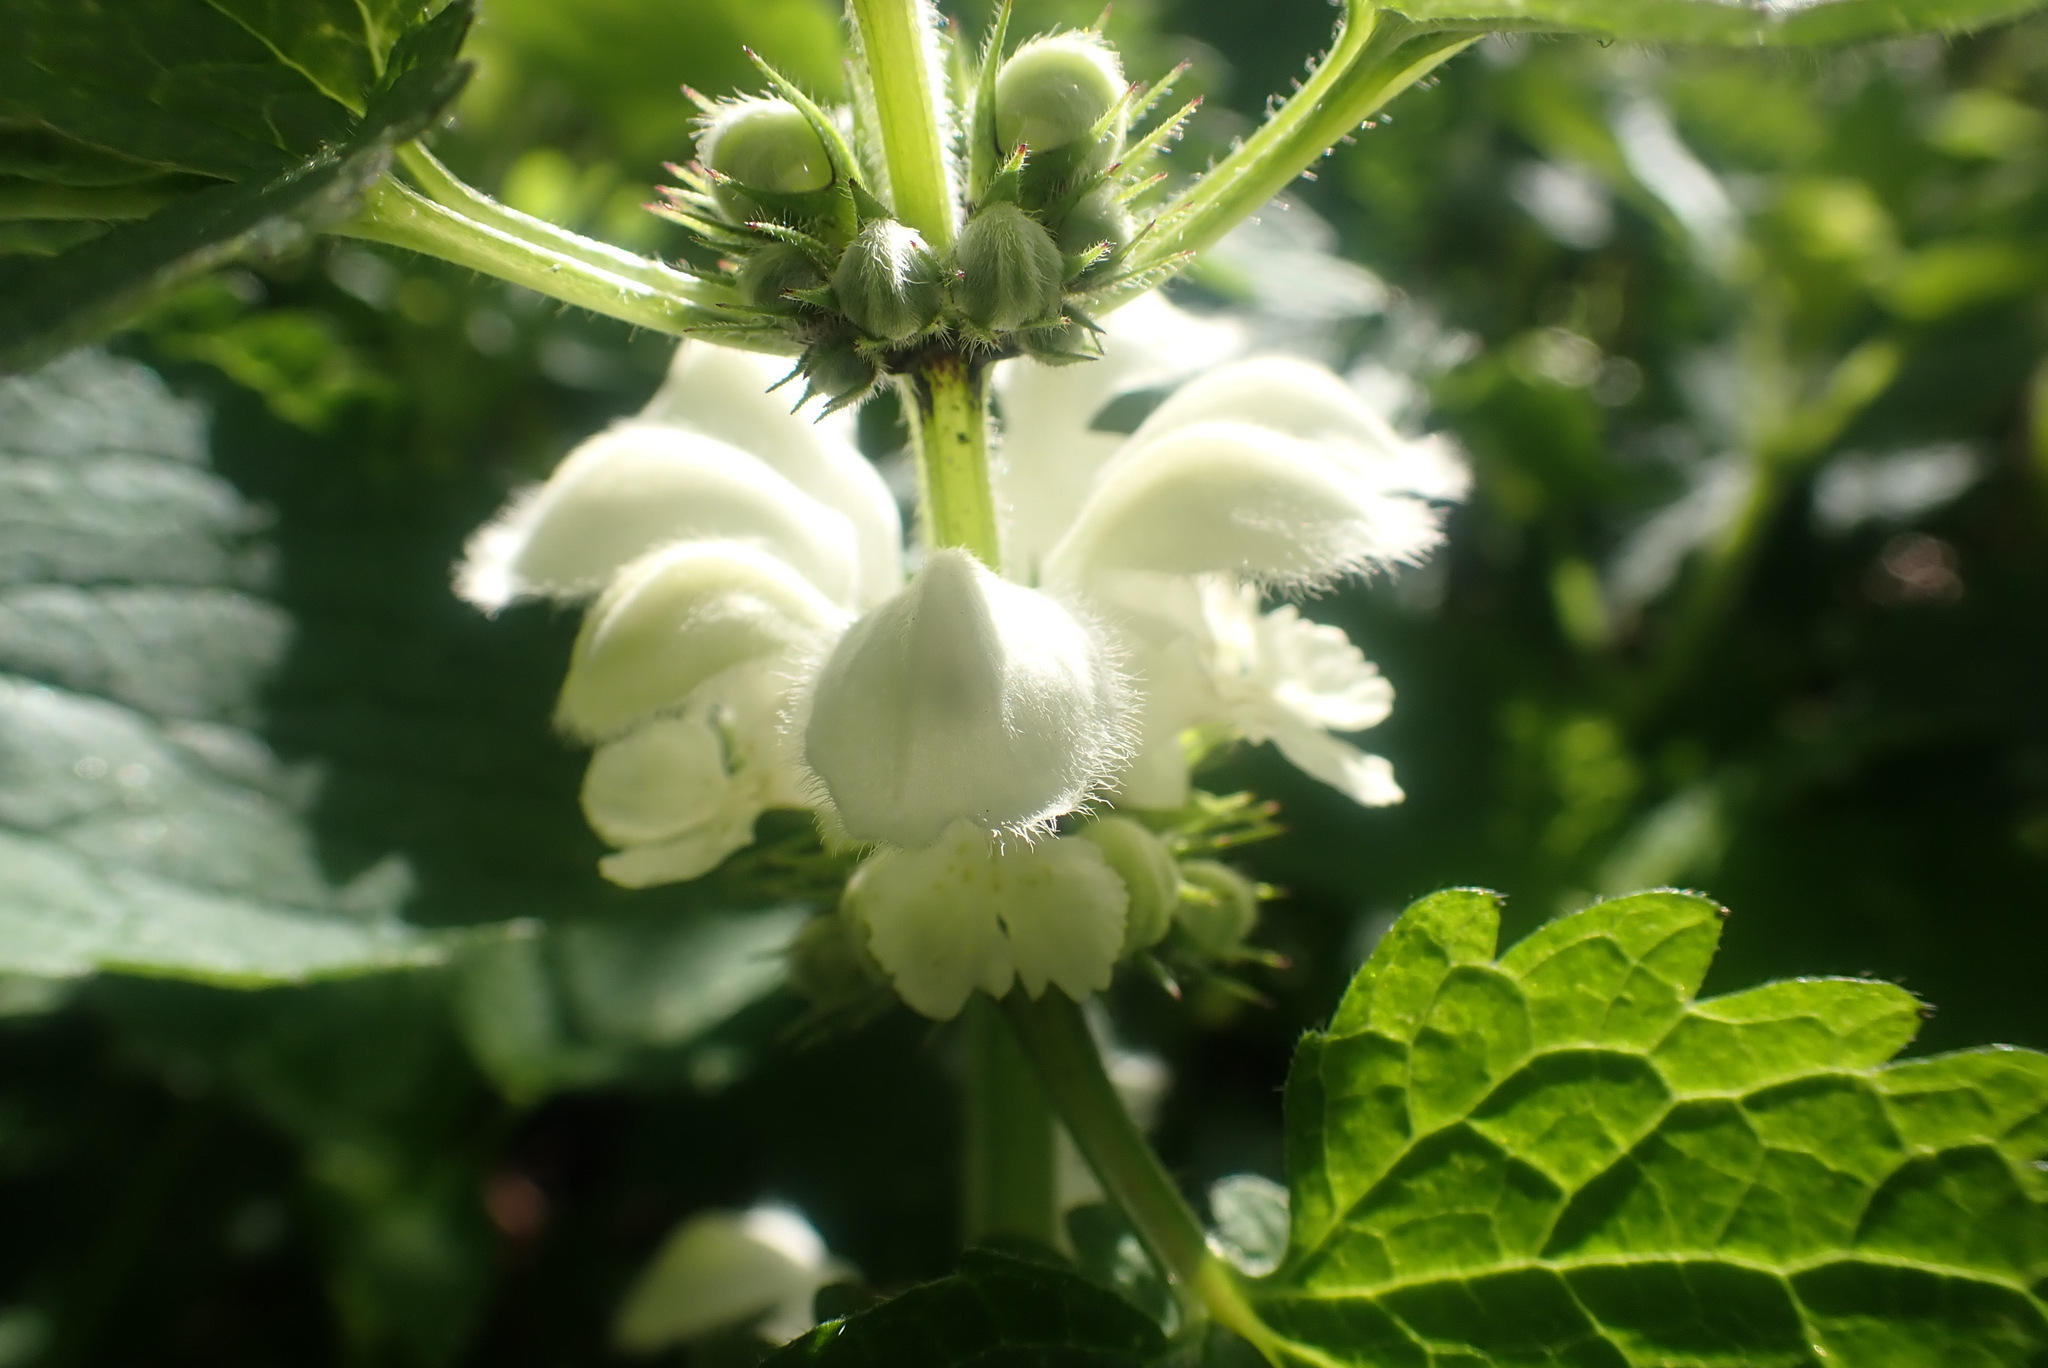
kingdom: Plantae
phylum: Tracheophyta
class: Magnoliopsida
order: Lamiales
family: Lamiaceae
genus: Lamium
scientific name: Lamium album
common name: White dead-nettle
